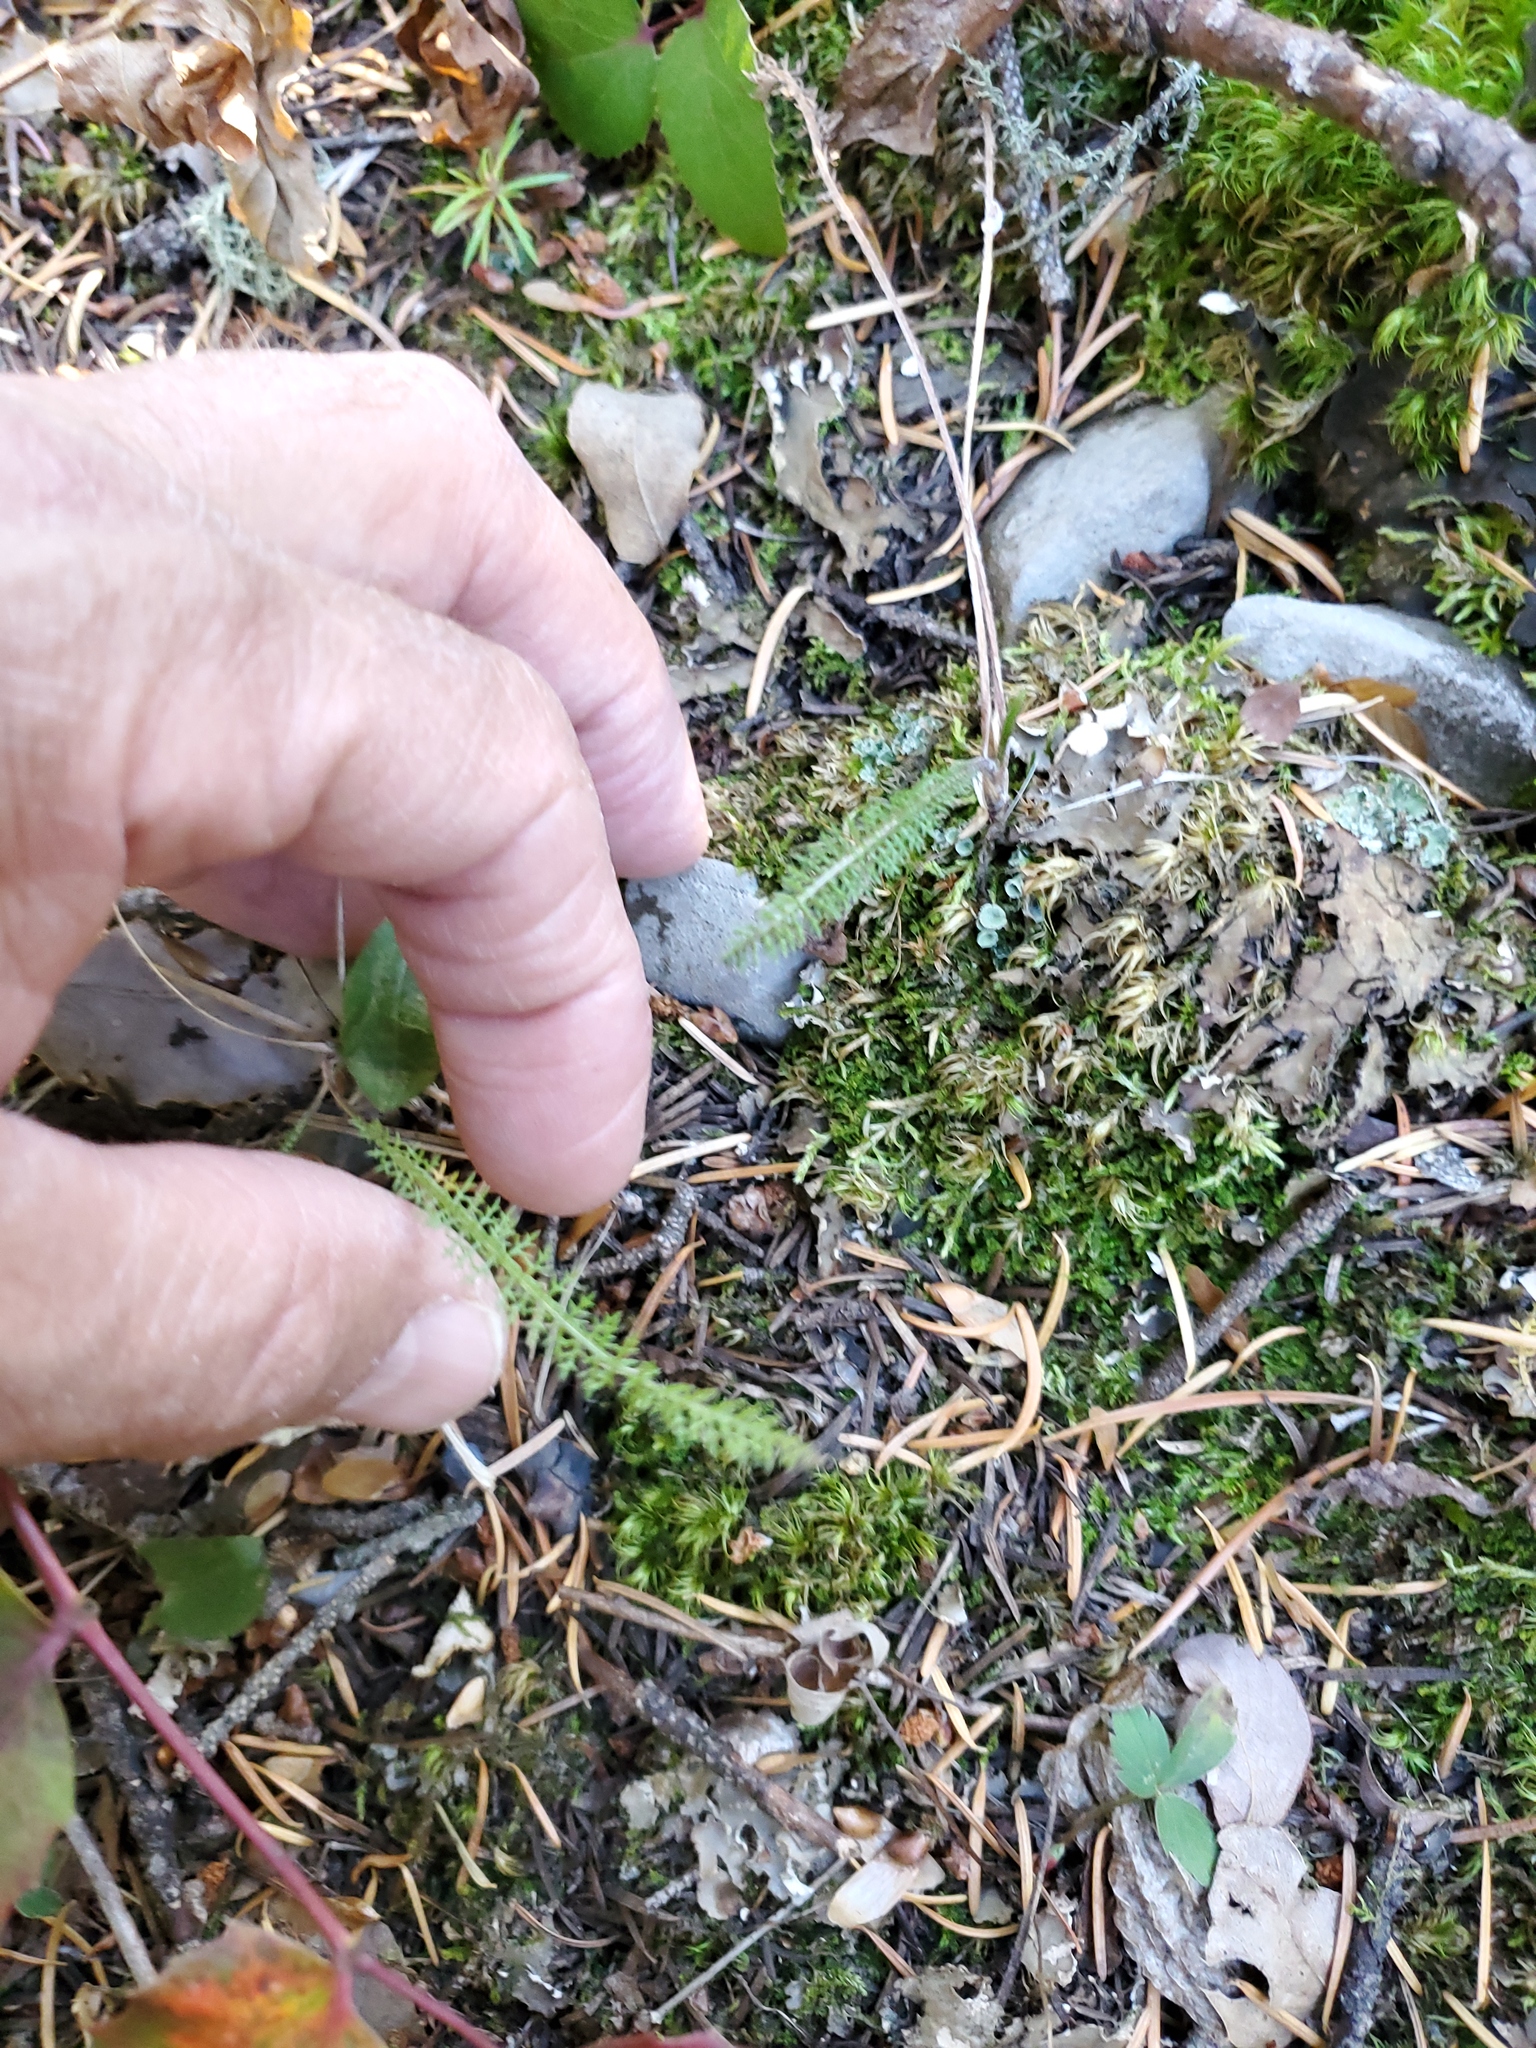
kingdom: Plantae
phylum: Tracheophyta
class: Magnoliopsida
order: Asterales
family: Asteraceae
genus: Achillea
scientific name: Achillea millefolium
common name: Yarrow
